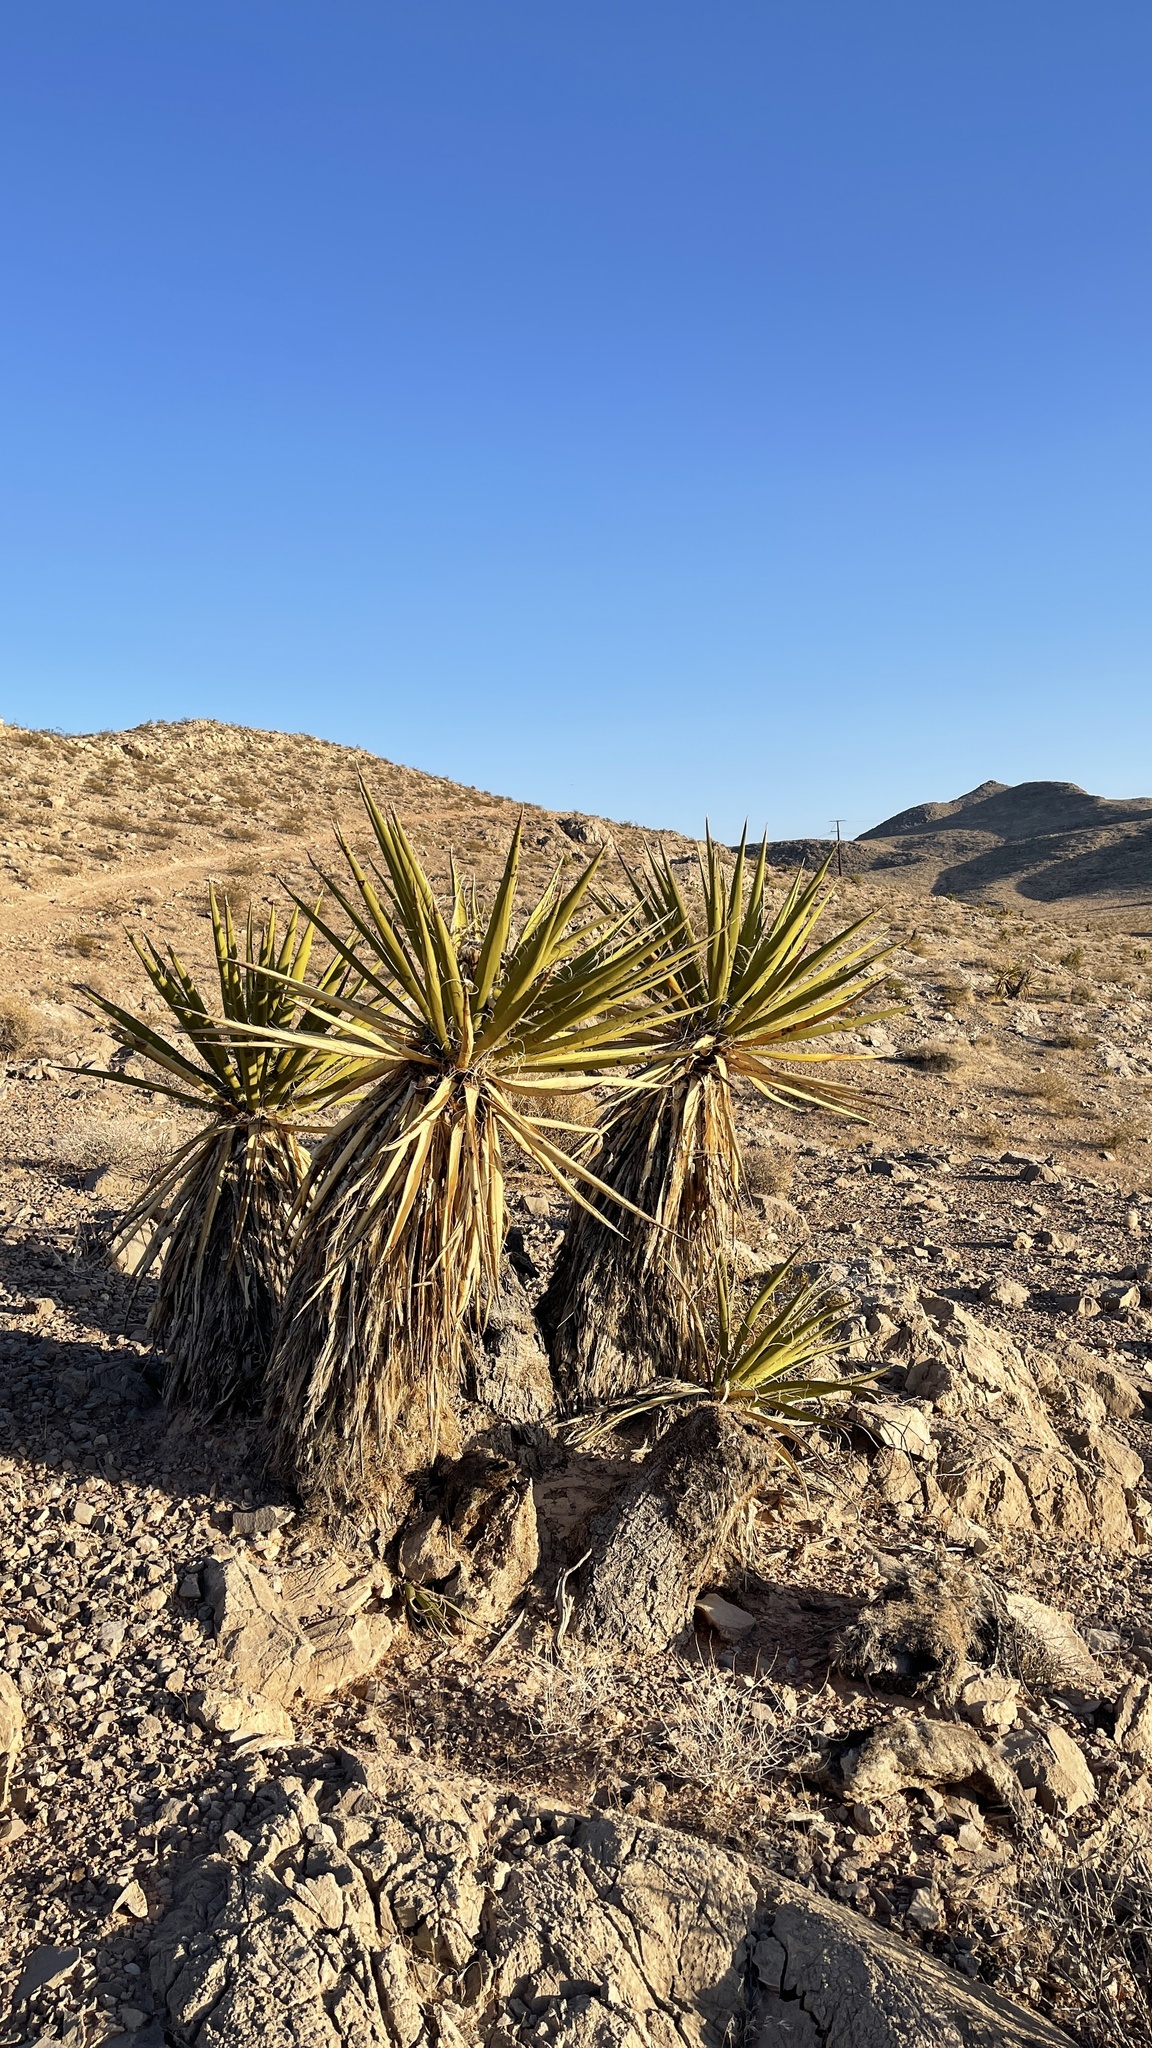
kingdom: Plantae
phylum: Tracheophyta
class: Liliopsida
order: Asparagales
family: Asparagaceae
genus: Yucca
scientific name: Yucca schidigera
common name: Mojave yucca
